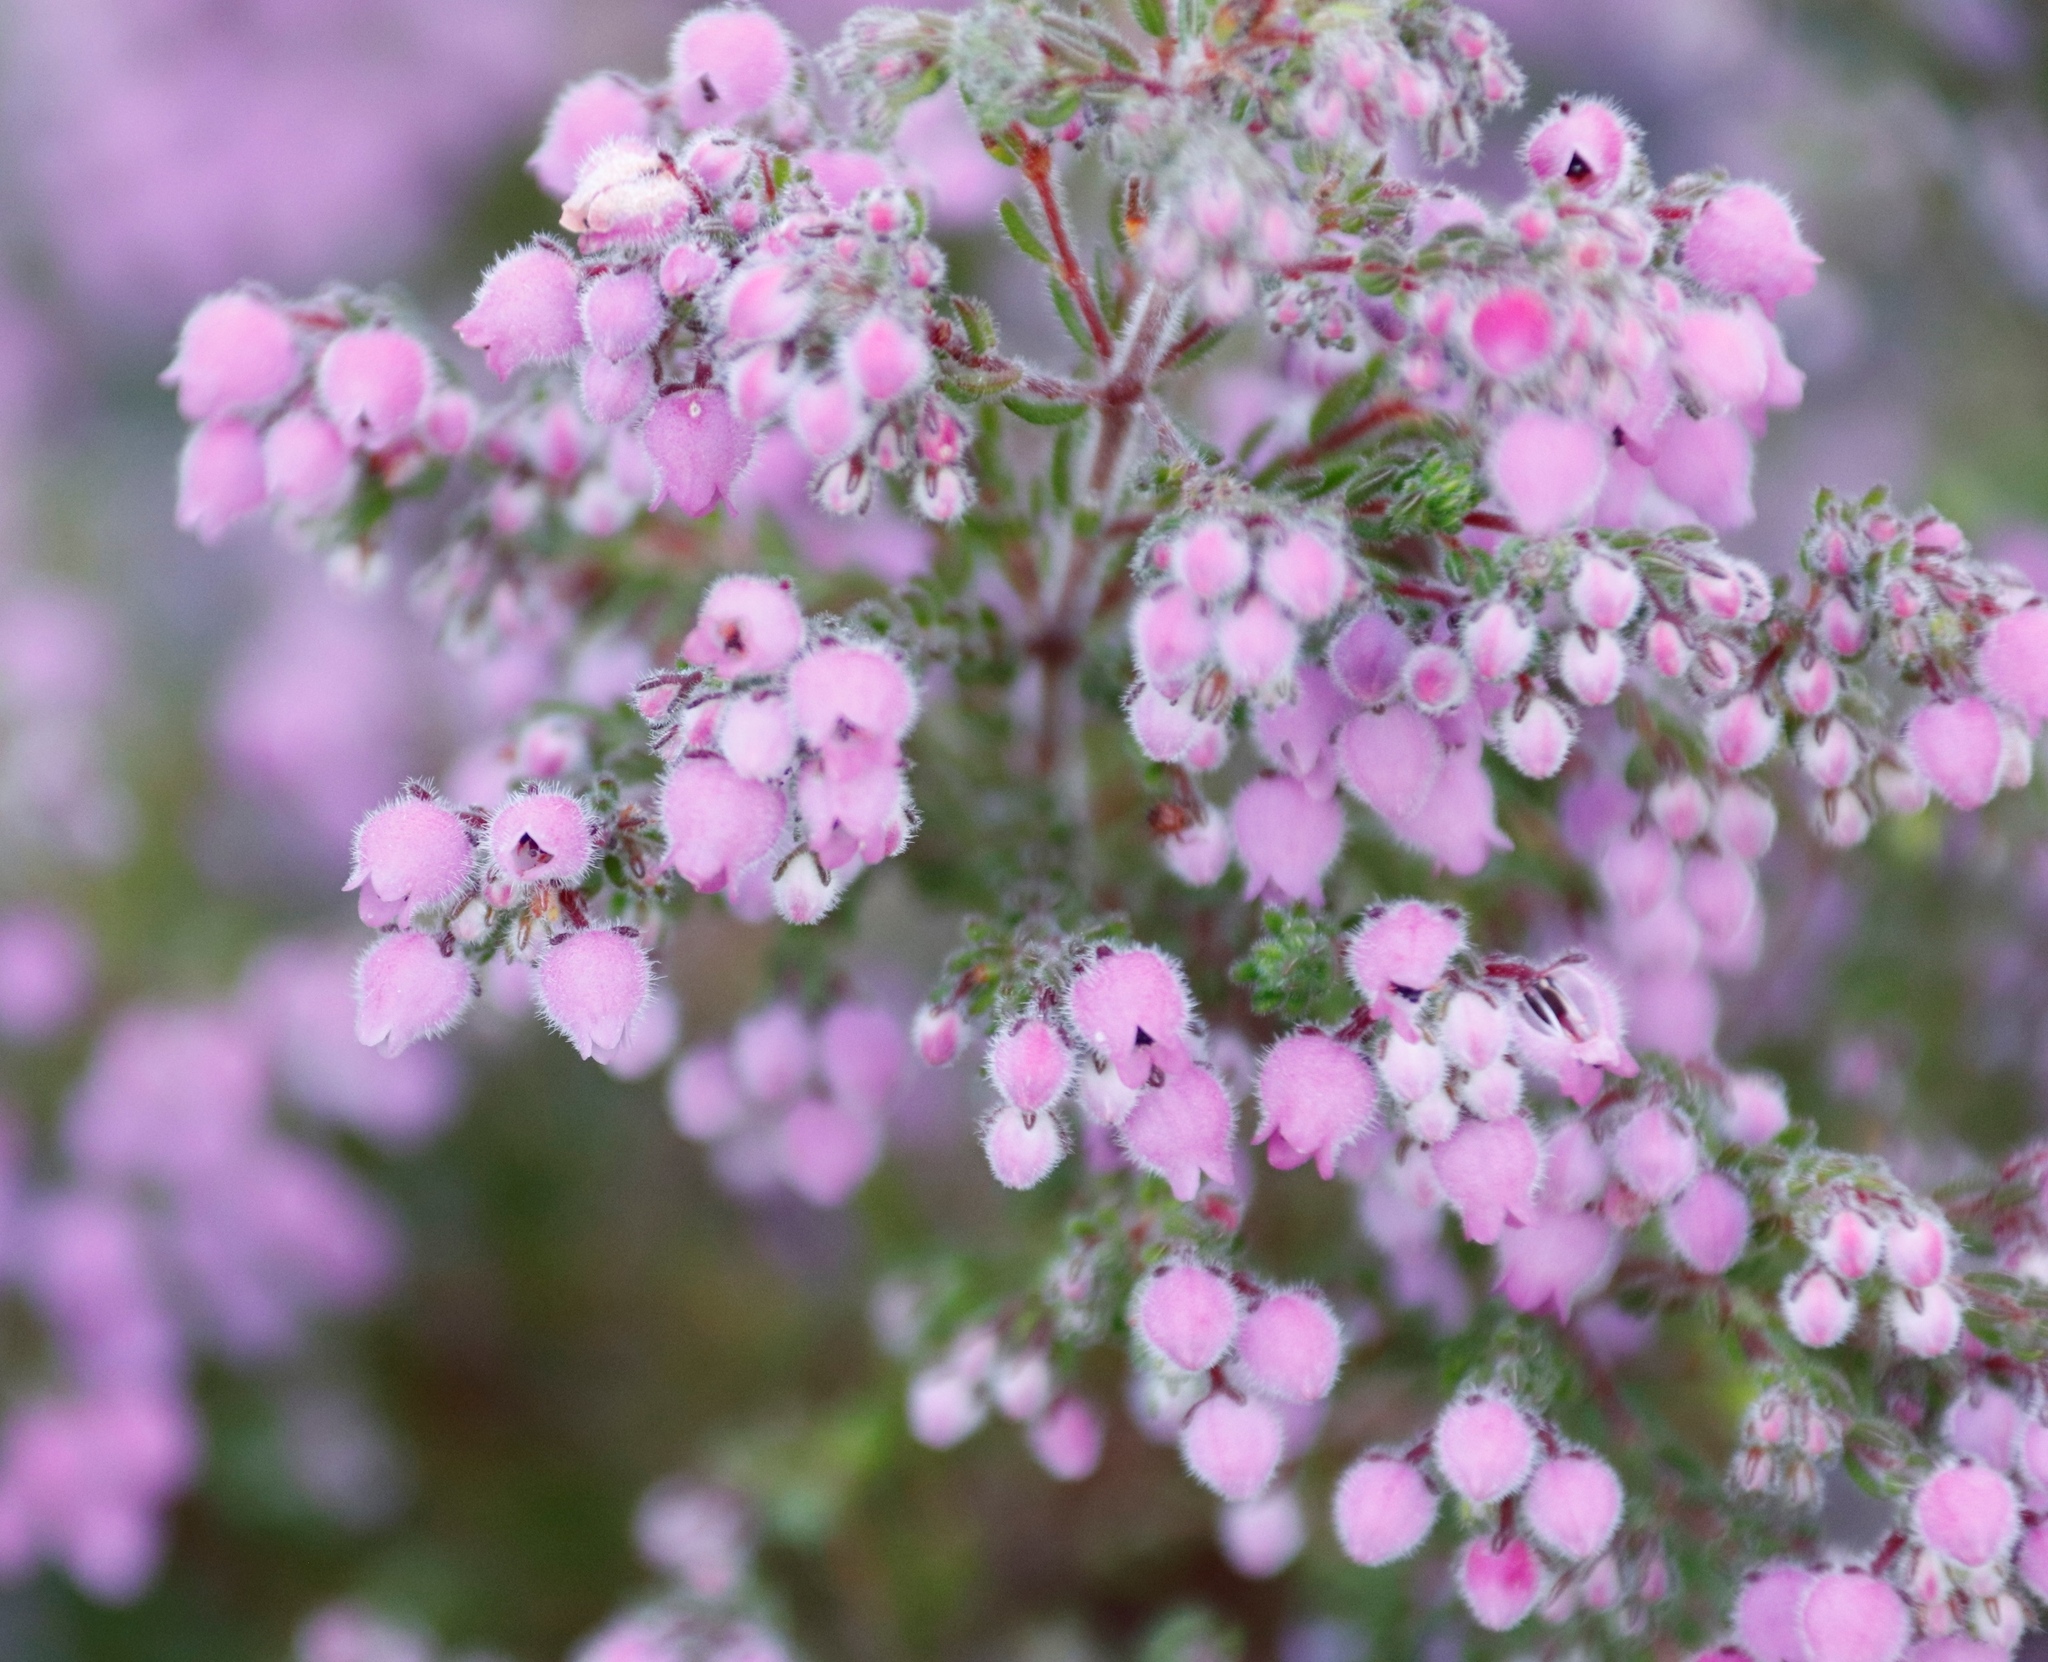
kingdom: Plantae
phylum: Tracheophyta
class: Magnoliopsida
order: Ericales
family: Ericaceae
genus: Erica
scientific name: Erica hirtiflora
